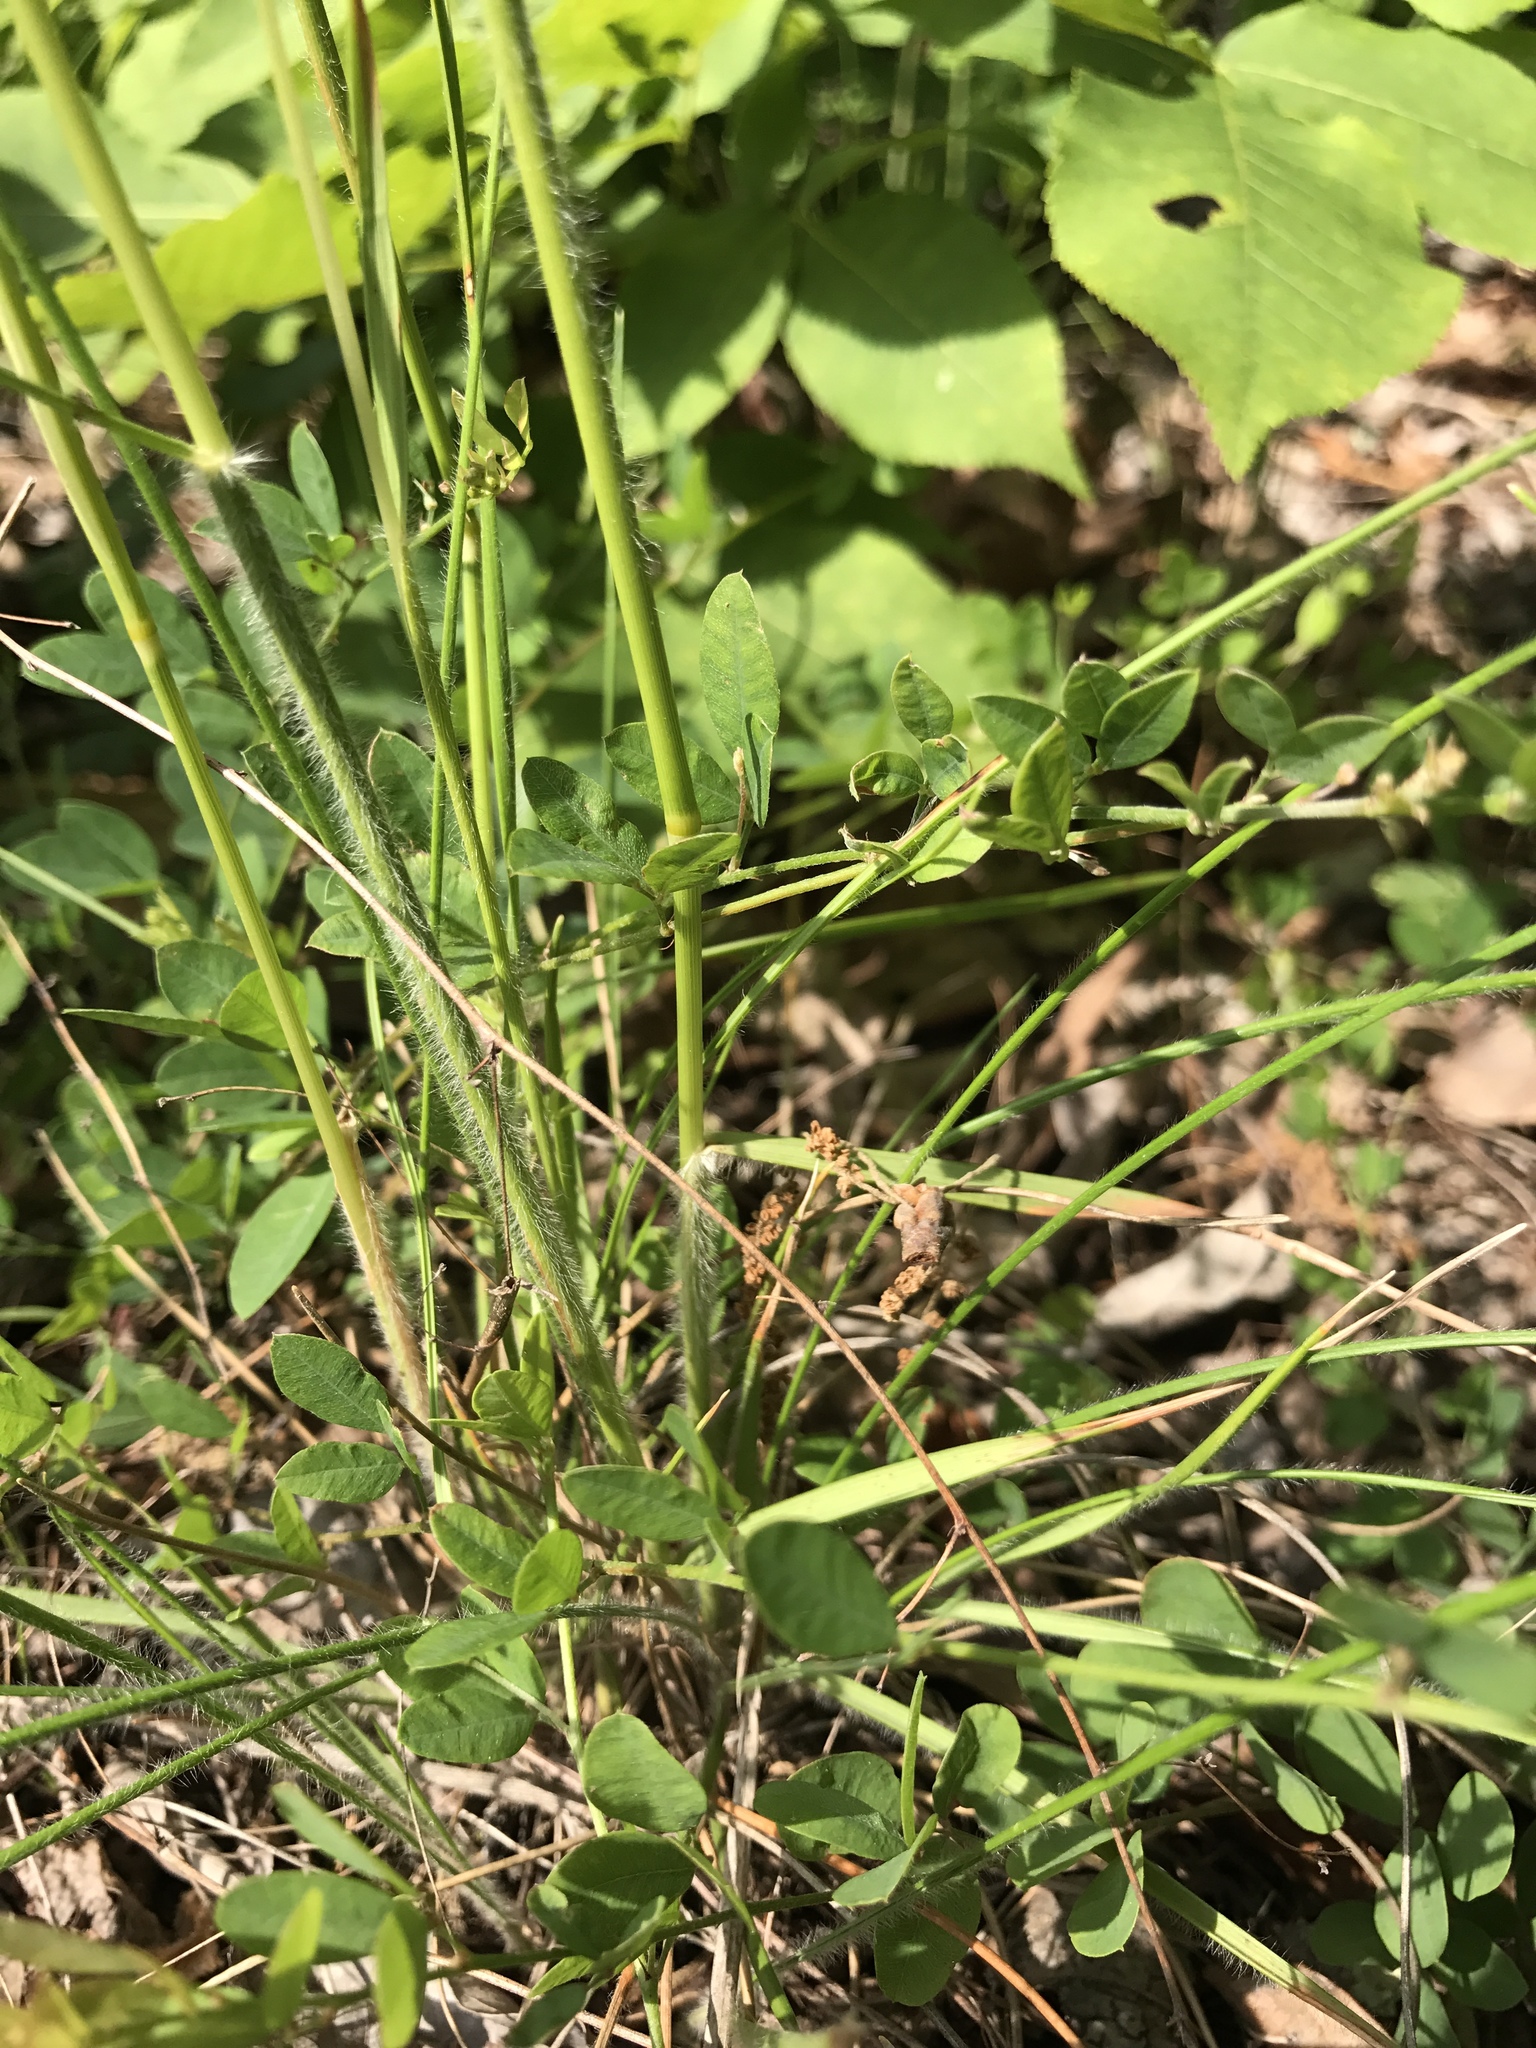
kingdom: Plantae
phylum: Tracheophyta
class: Liliopsida
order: Poales
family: Poaceae
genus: Danthonia
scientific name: Danthonia sericea
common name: Downy danthonia
